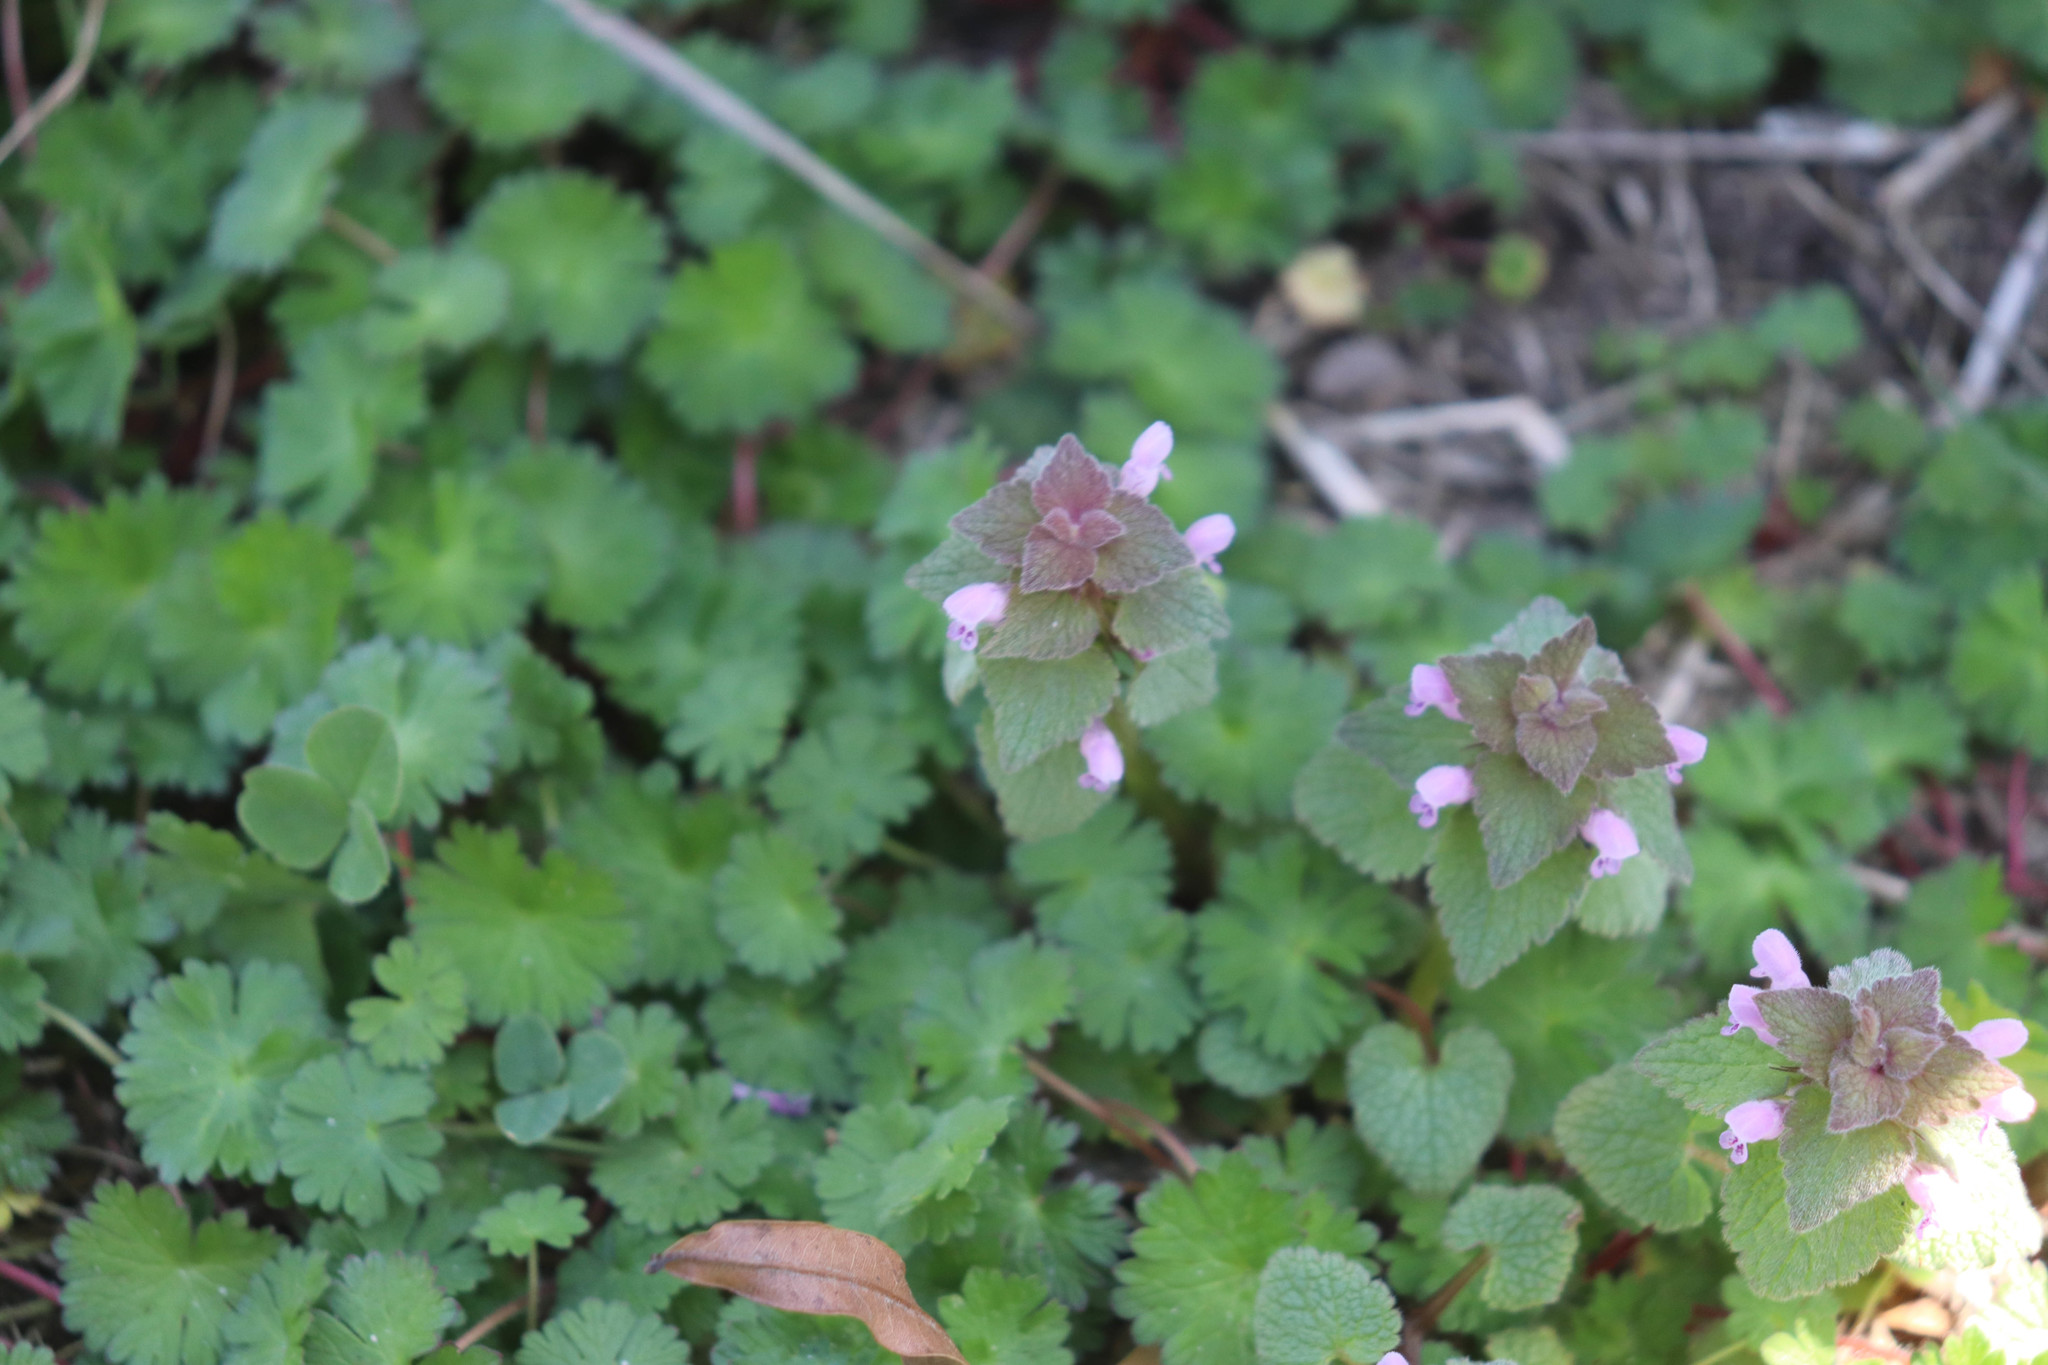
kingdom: Plantae
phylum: Tracheophyta
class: Magnoliopsida
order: Lamiales
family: Lamiaceae
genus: Lamium
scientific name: Lamium purpureum
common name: Red dead-nettle
